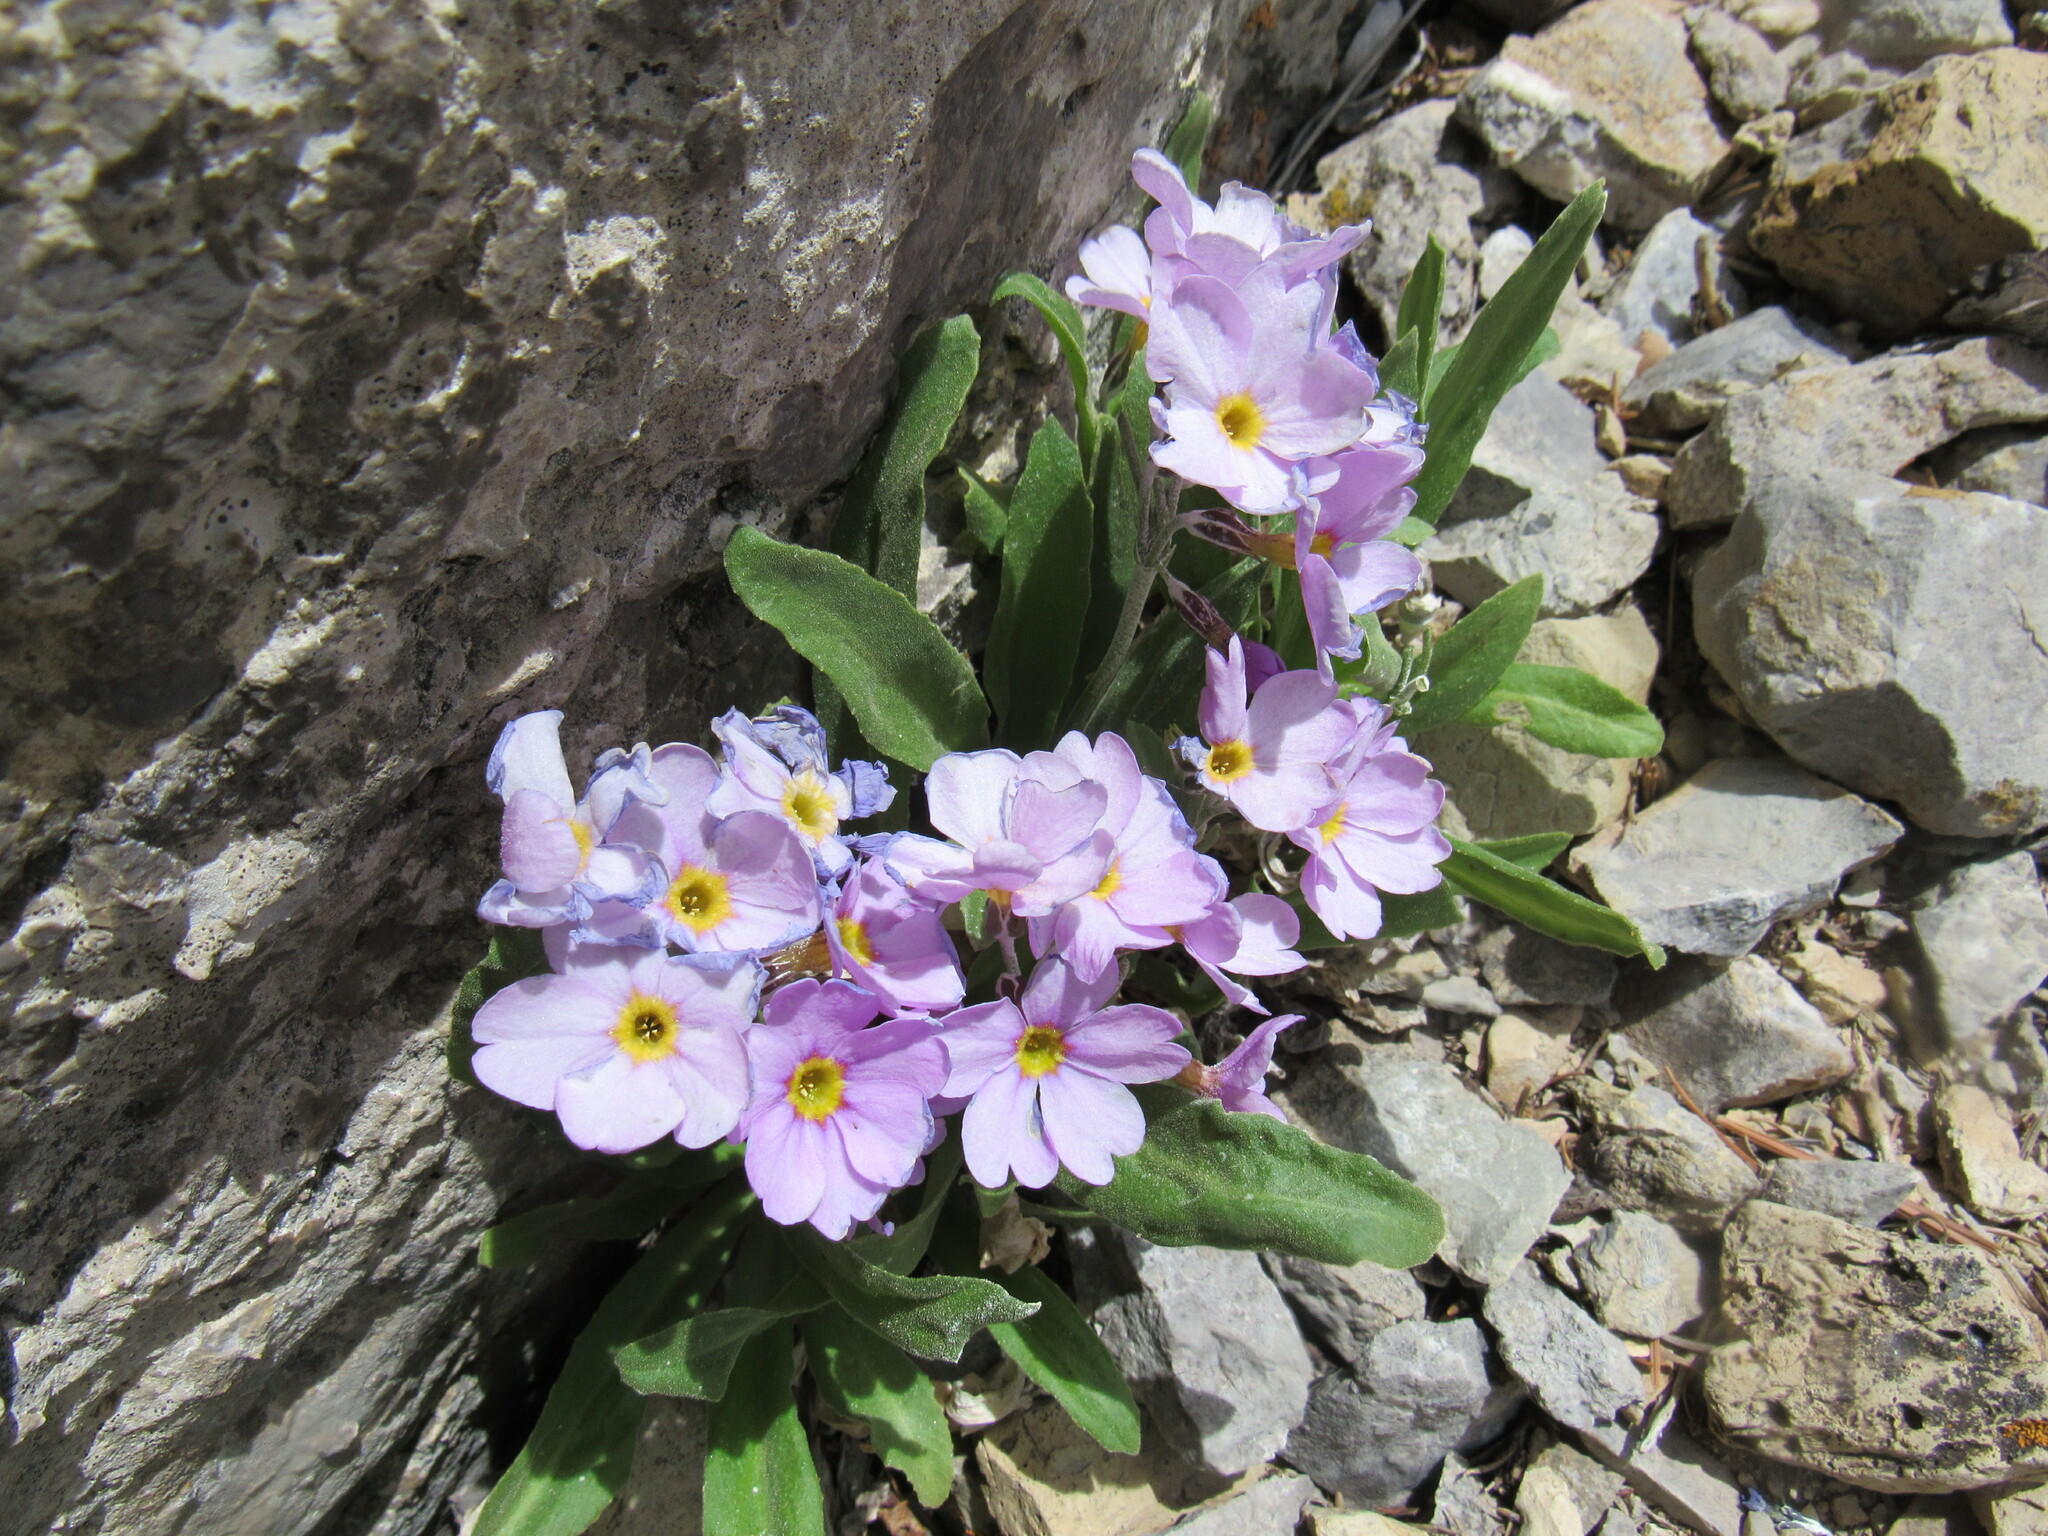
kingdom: Plantae
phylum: Tracheophyta
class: Magnoliopsida
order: Ericales
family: Primulaceae
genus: Primula
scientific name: Primula rusbyi
